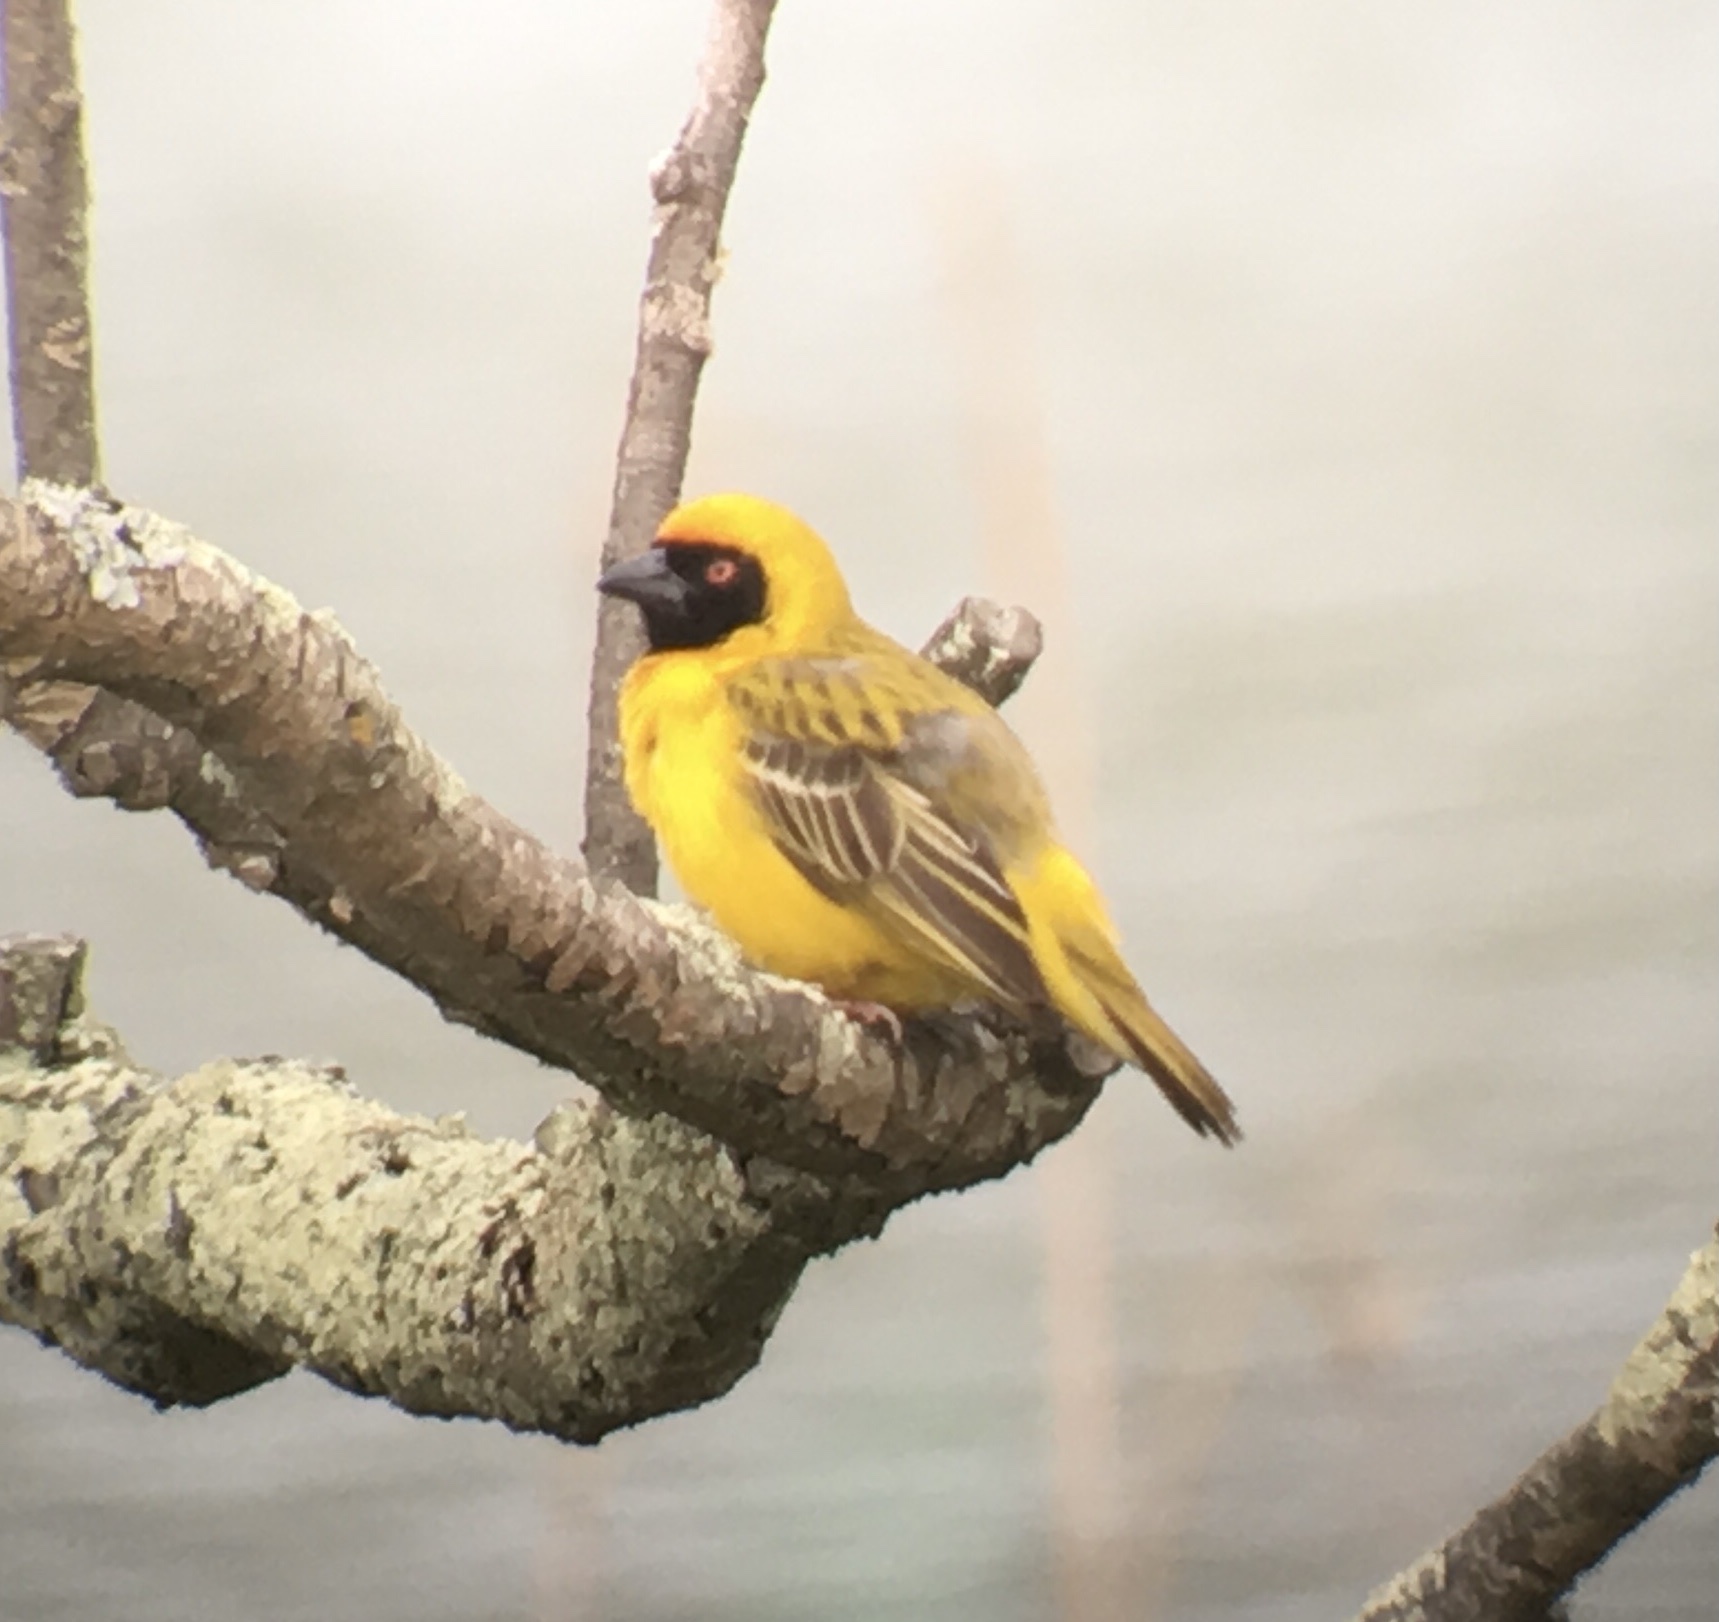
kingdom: Animalia
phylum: Chordata
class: Aves
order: Passeriformes
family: Ploceidae
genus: Ploceus
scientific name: Ploceus velatus
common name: Southern masked weaver
